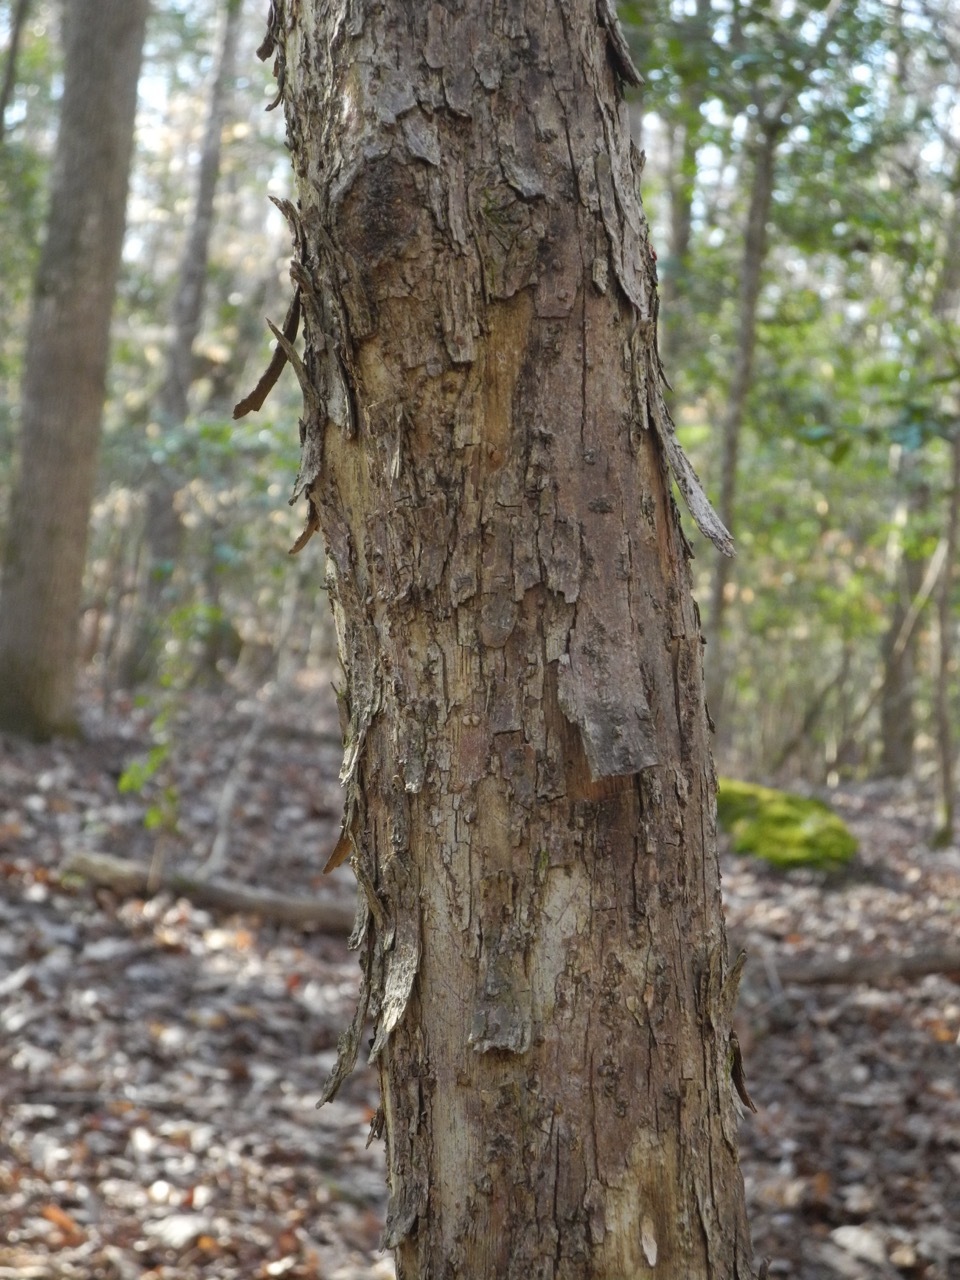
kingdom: Plantae
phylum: Tracheophyta
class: Magnoliopsida
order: Fagales
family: Betulaceae
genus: Ostrya
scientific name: Ostrya virginiana
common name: Ironwood
